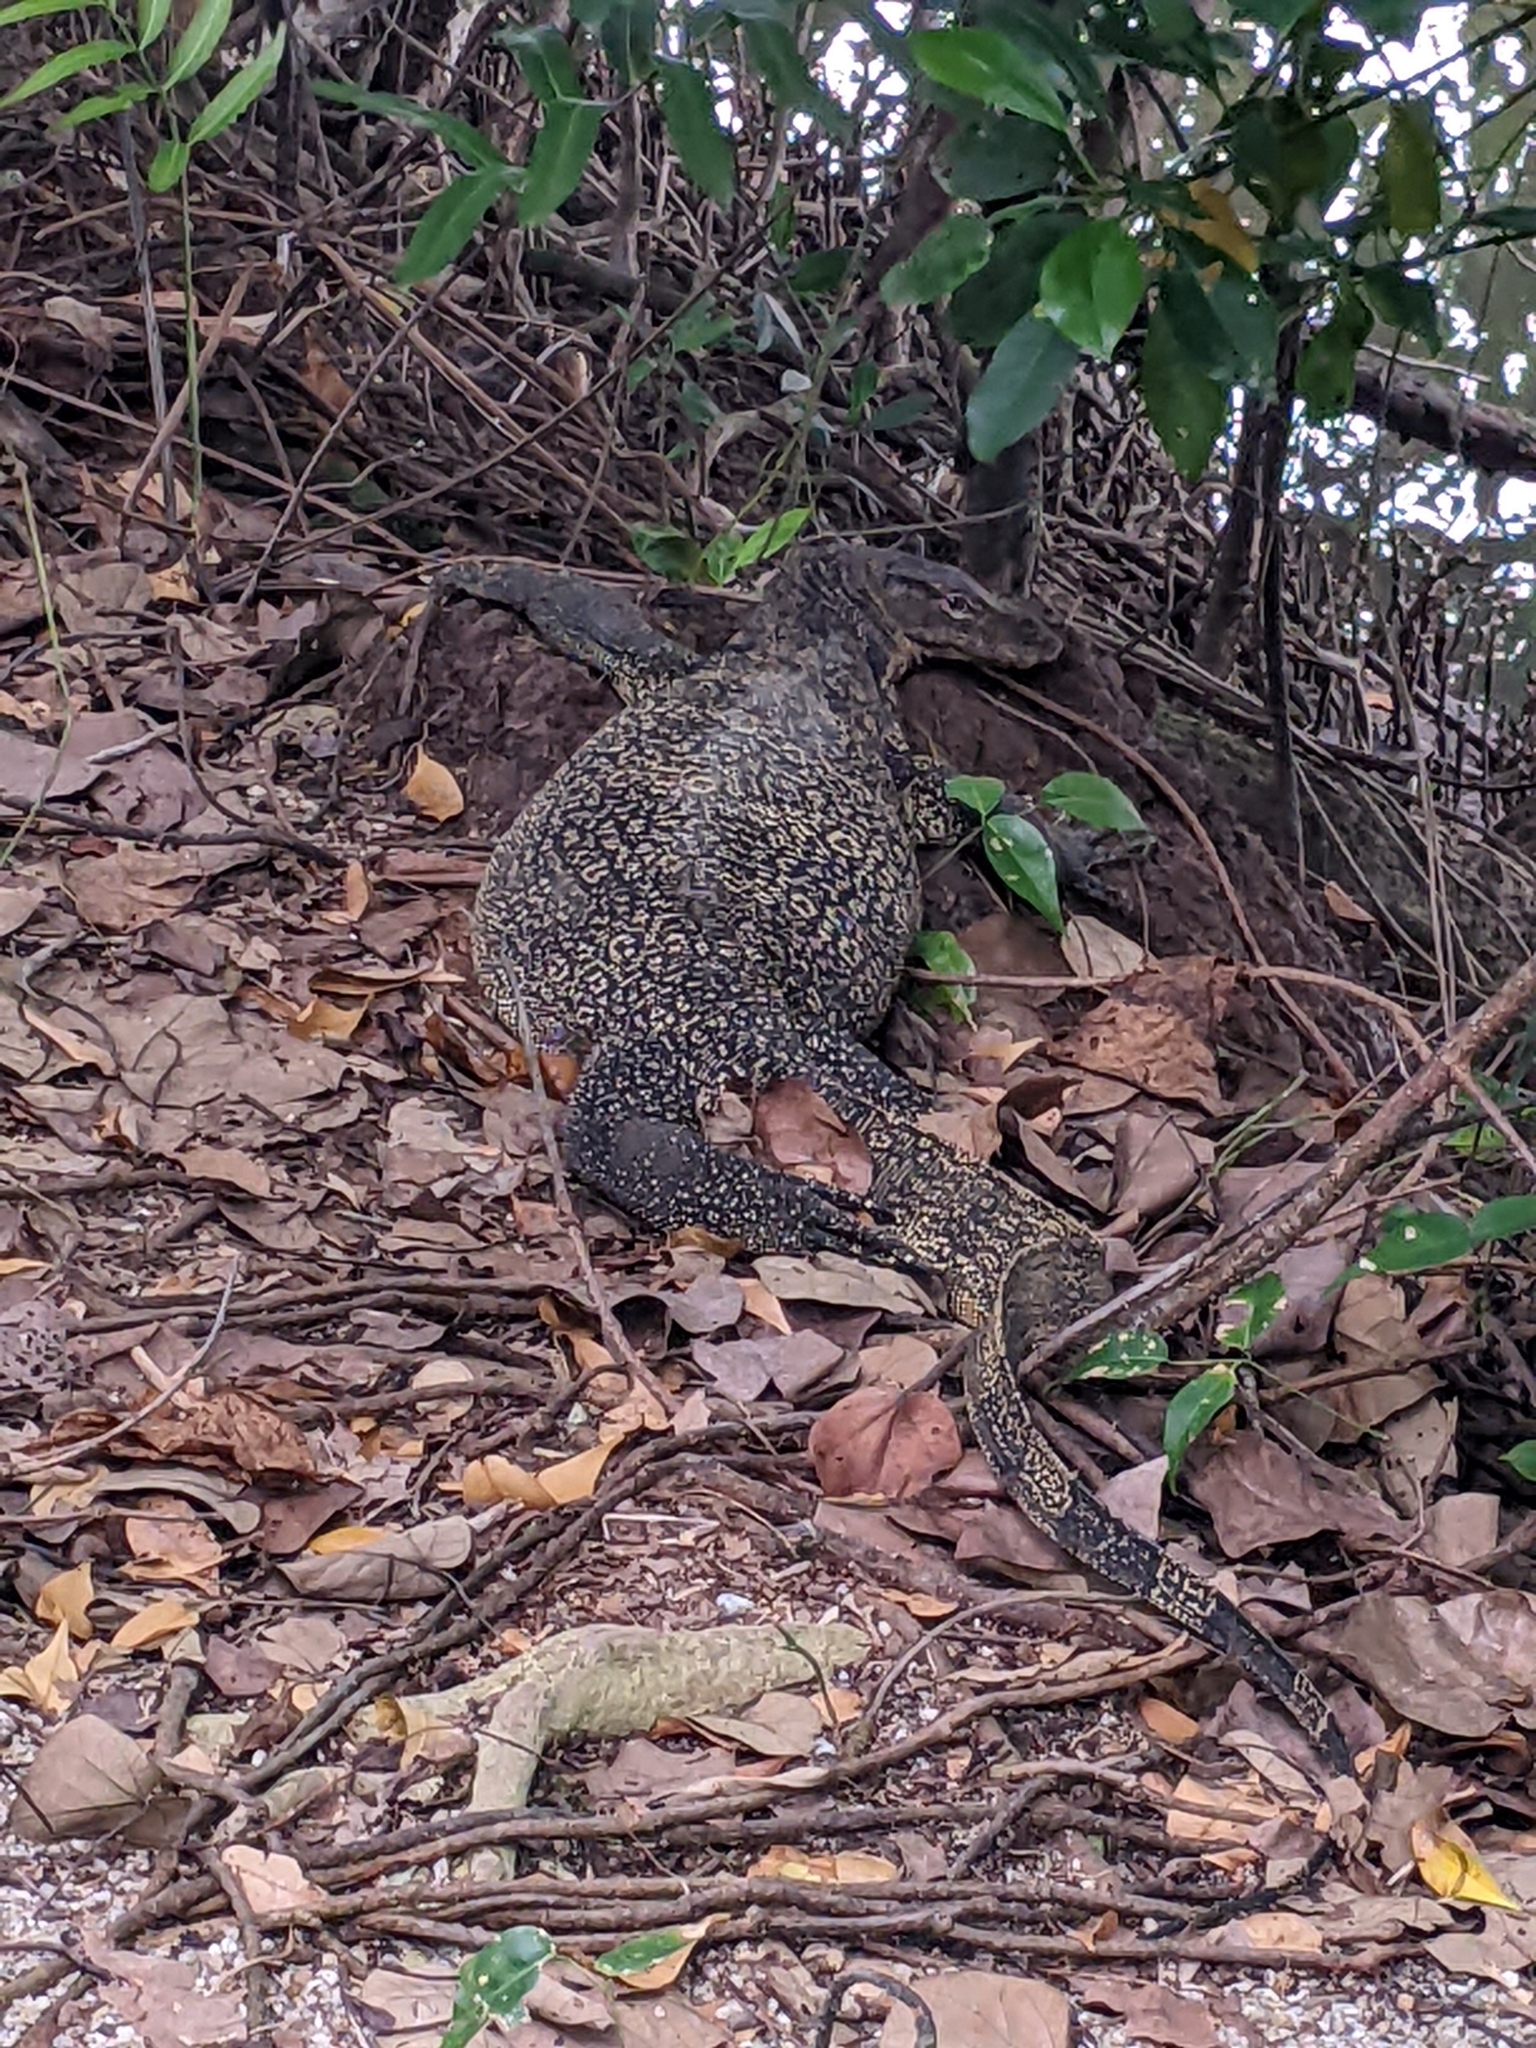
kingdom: Animalia
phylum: Chordata
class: Squamata
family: Varanidae
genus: Varanus
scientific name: Varanus salvator
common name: Common water monitor
